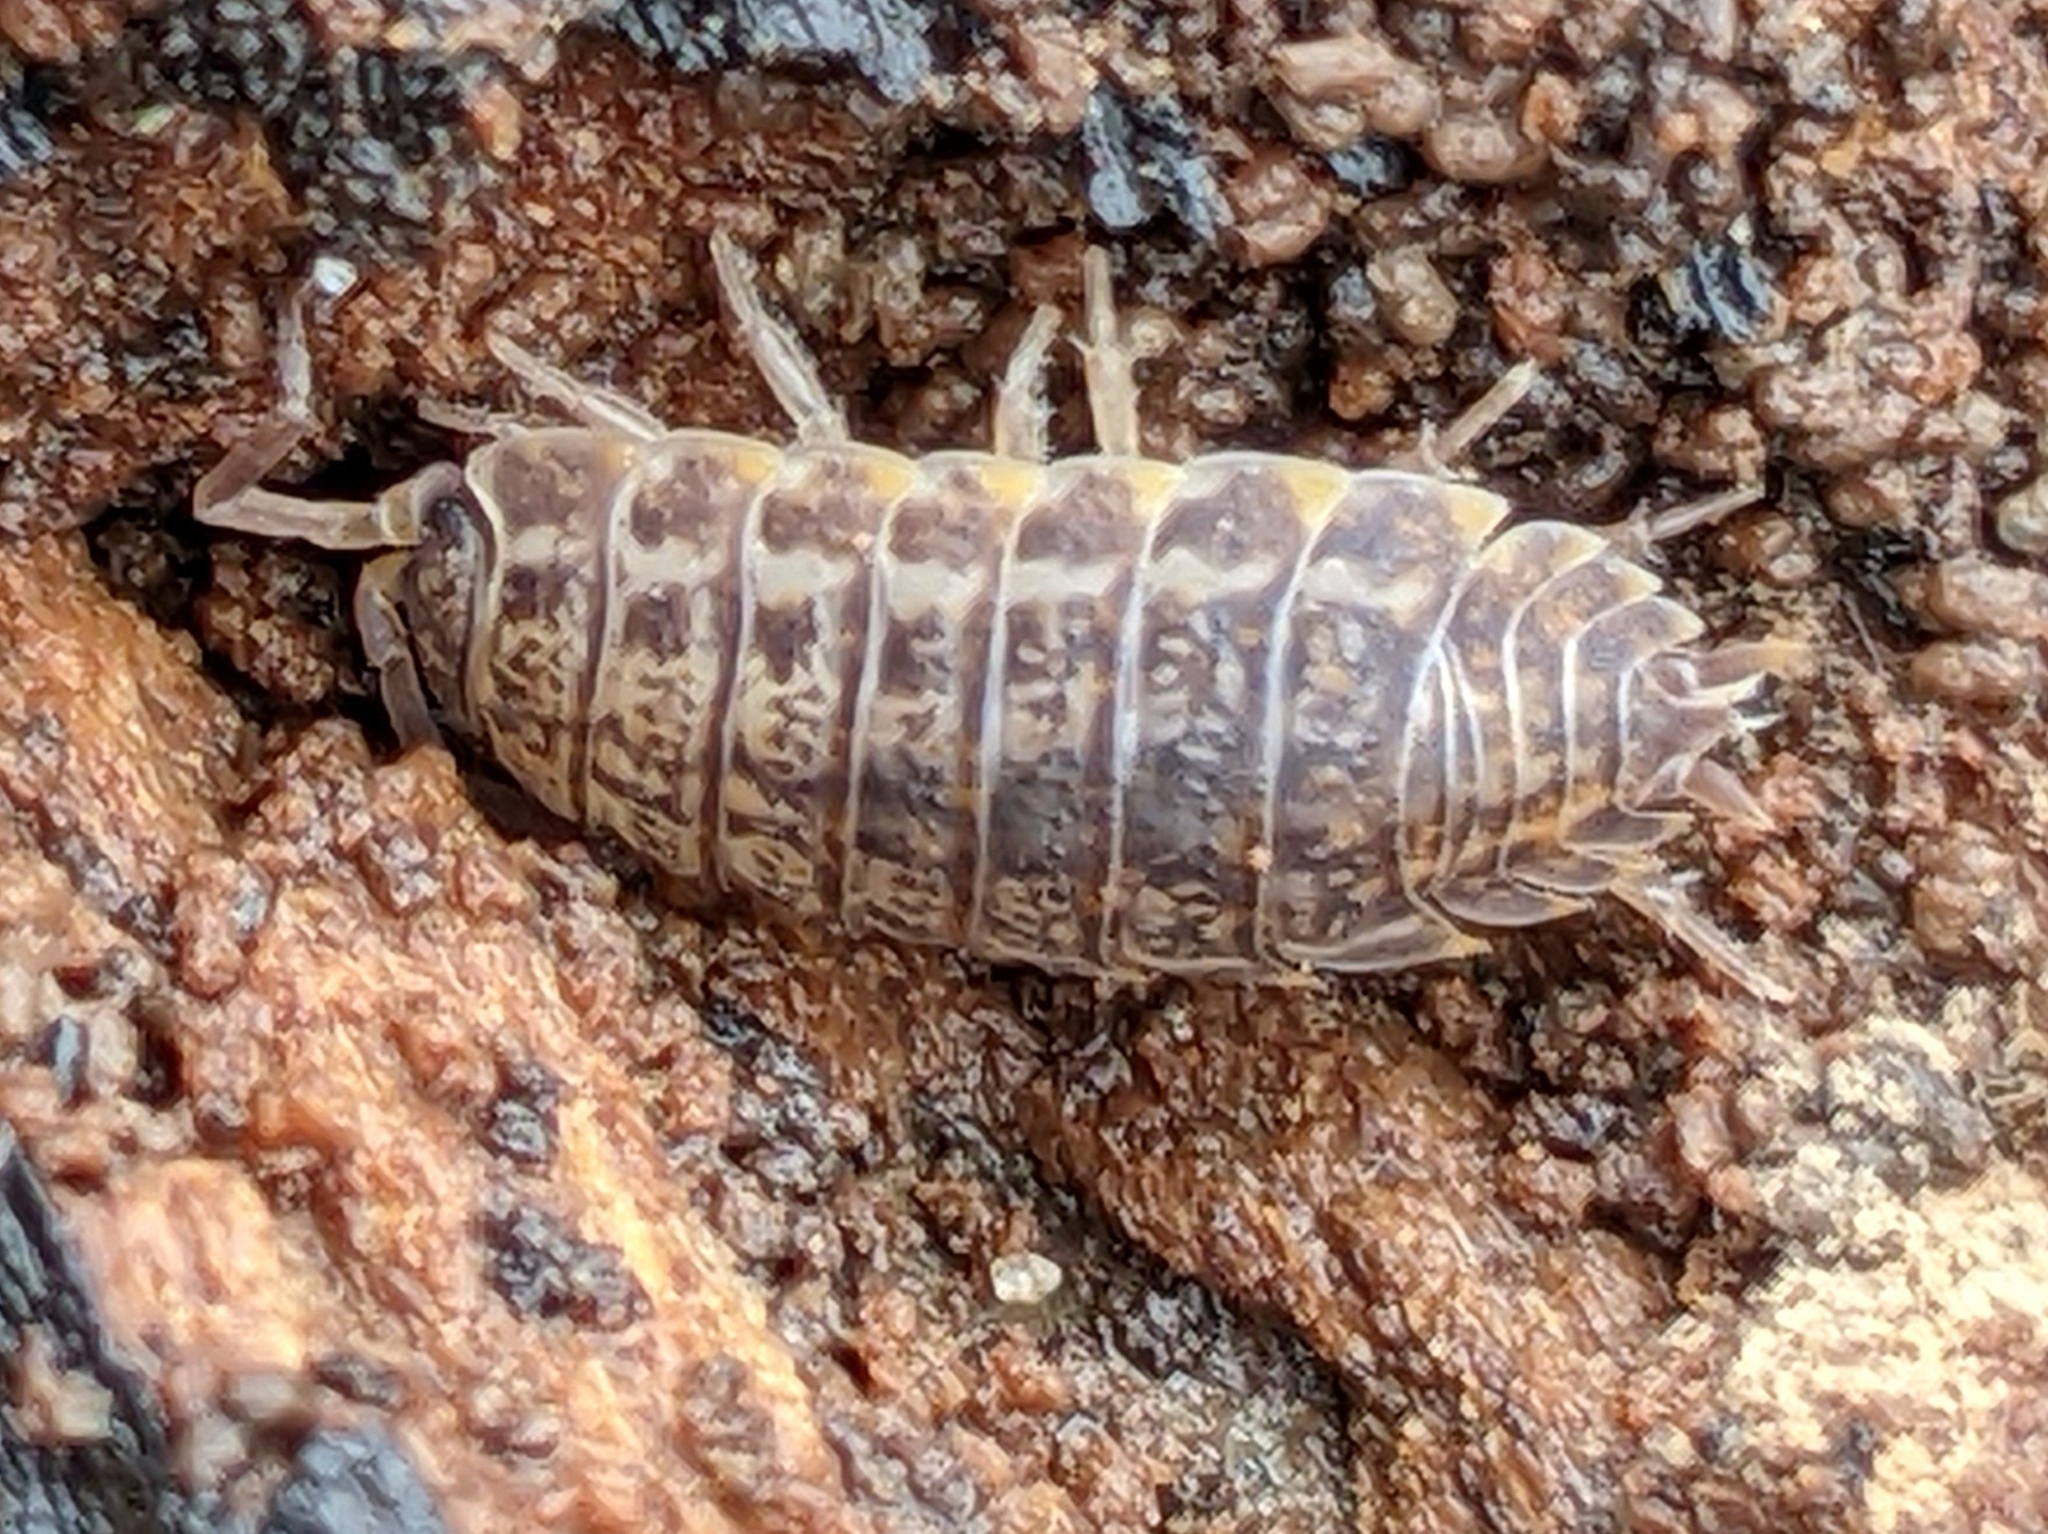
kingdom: Animalia
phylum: Arthropoda
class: Malacostraca
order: Isopoda
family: Trachelipodidae
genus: Trachelipus
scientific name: Trachelipus rathkii
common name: Isopod
